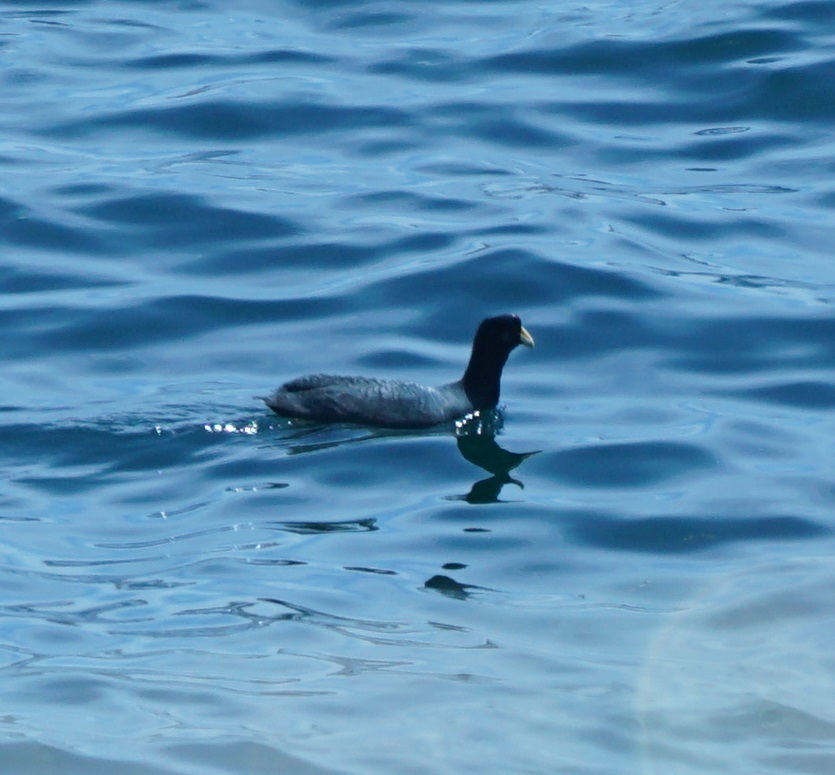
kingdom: Animalia
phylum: Chordata
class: Aves
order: Gruiformes
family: Rallidae
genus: Fulica
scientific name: Fulica ardesiaca
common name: Andean coot
